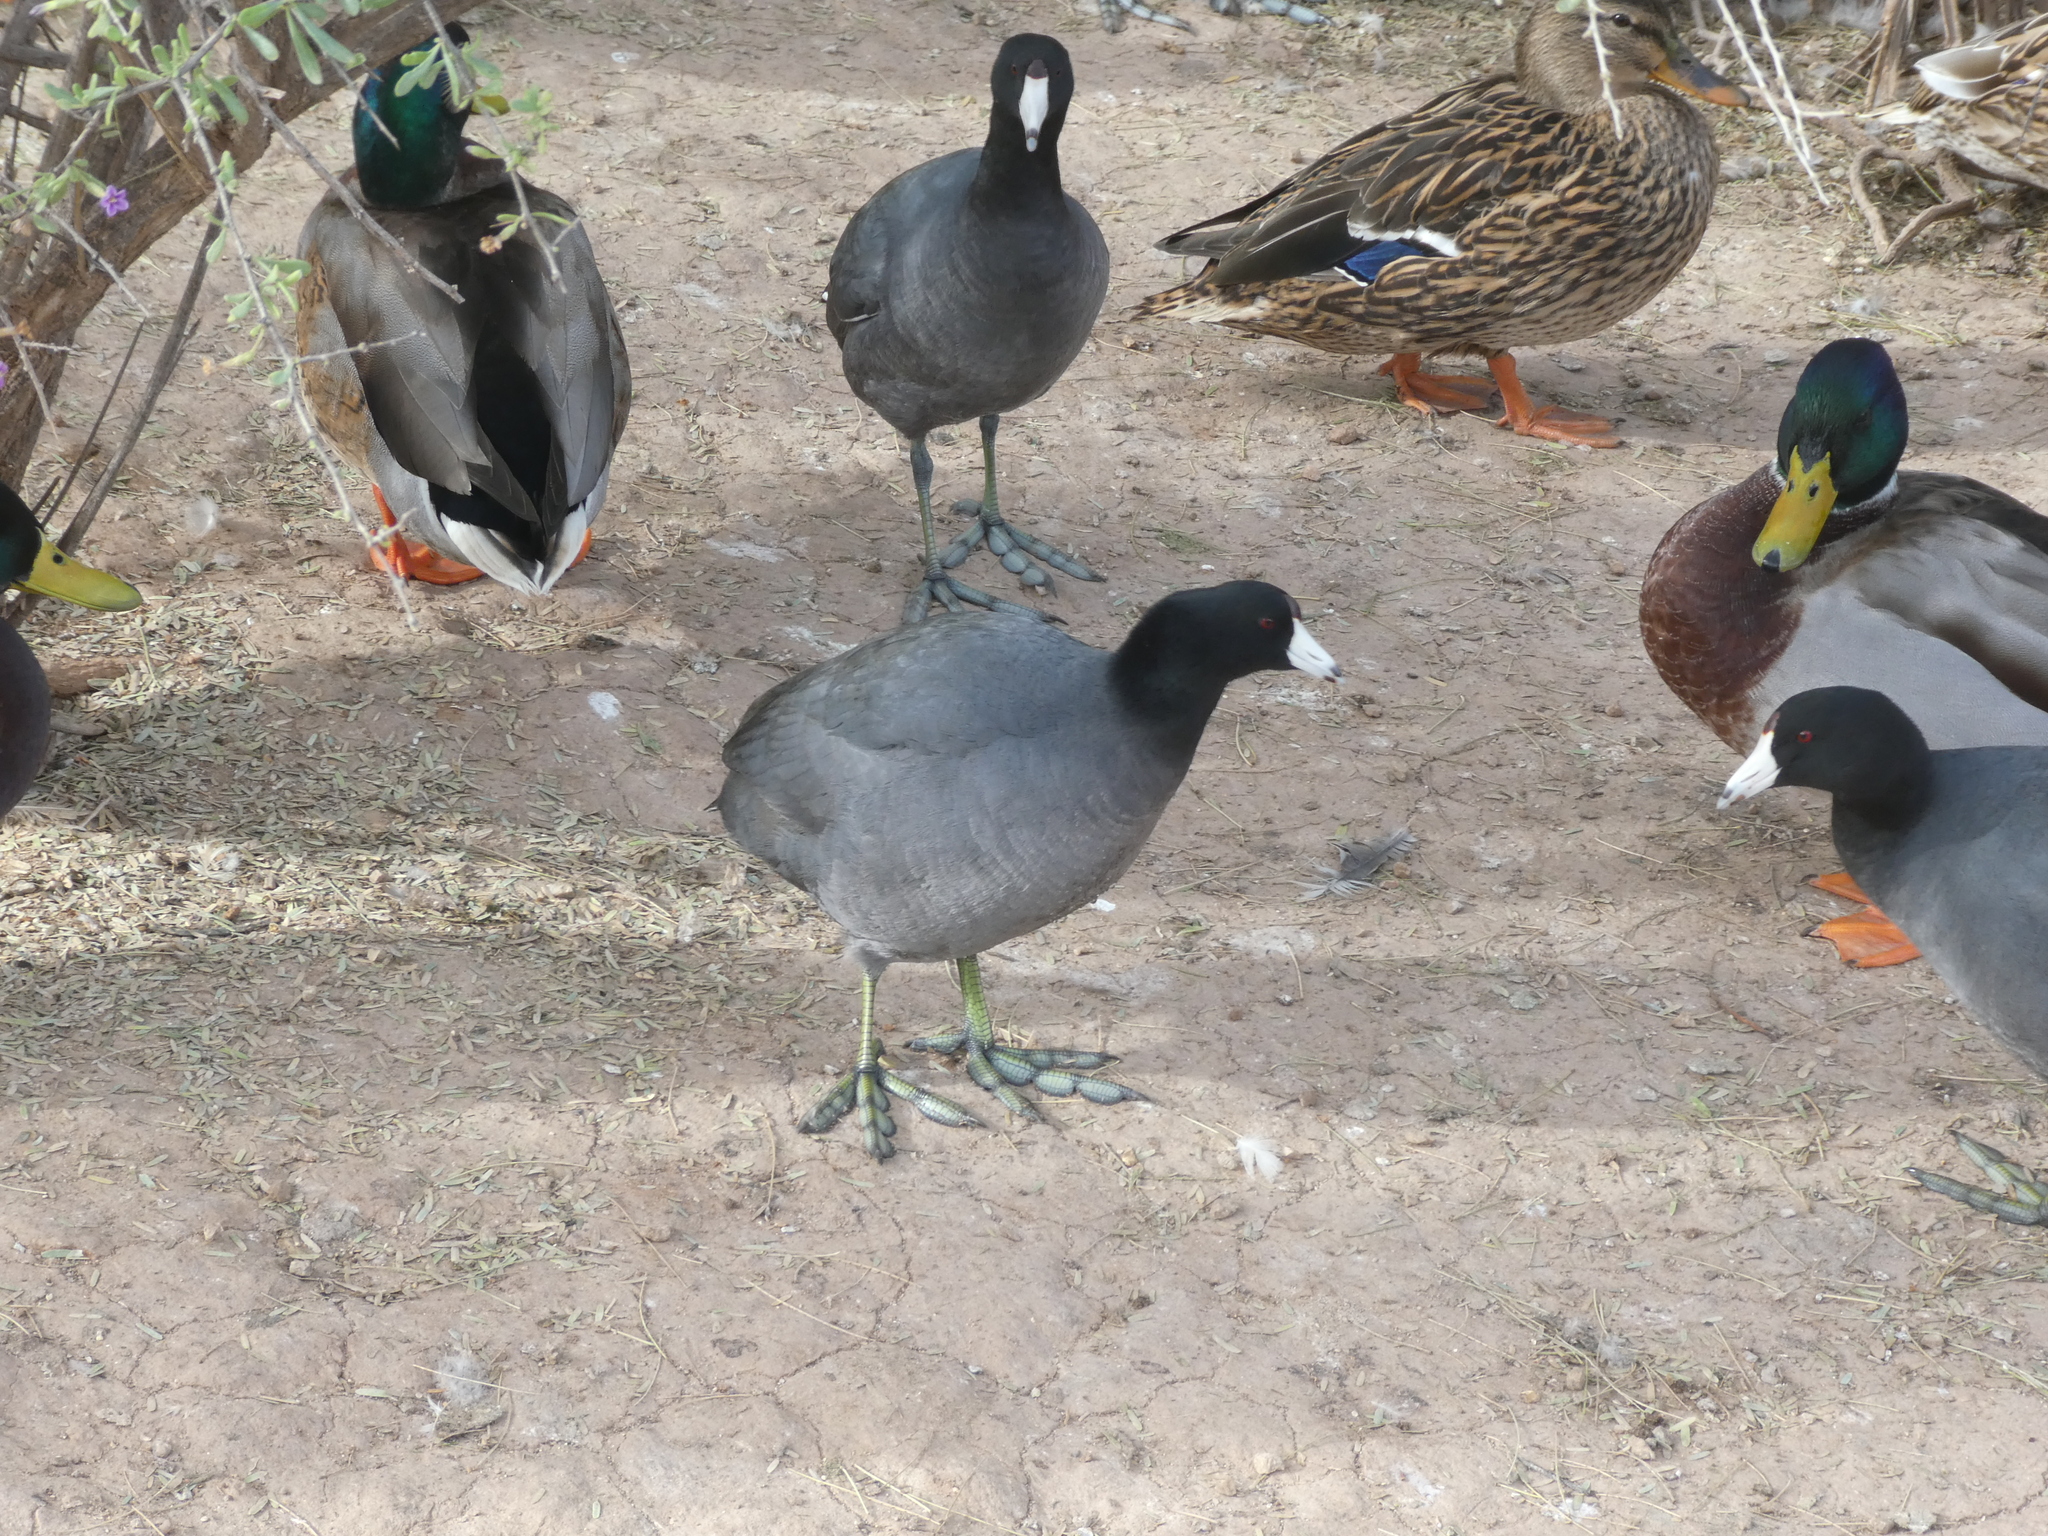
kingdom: Animalia
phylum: Chordata
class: Aves
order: Gruiformes
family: Rallidae
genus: Fulica
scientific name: Fulica americana
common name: American coot
